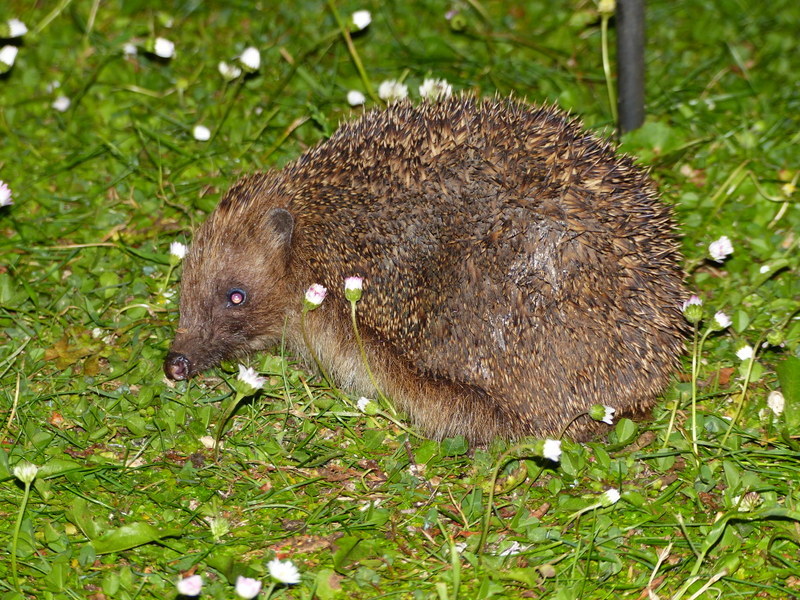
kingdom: Animalia
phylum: Chordata
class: Mammalia
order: Erinaceomorpha
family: Erinaceidae
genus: Erinaceus
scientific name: Erinaceus europaeus
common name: West european hedgehog
